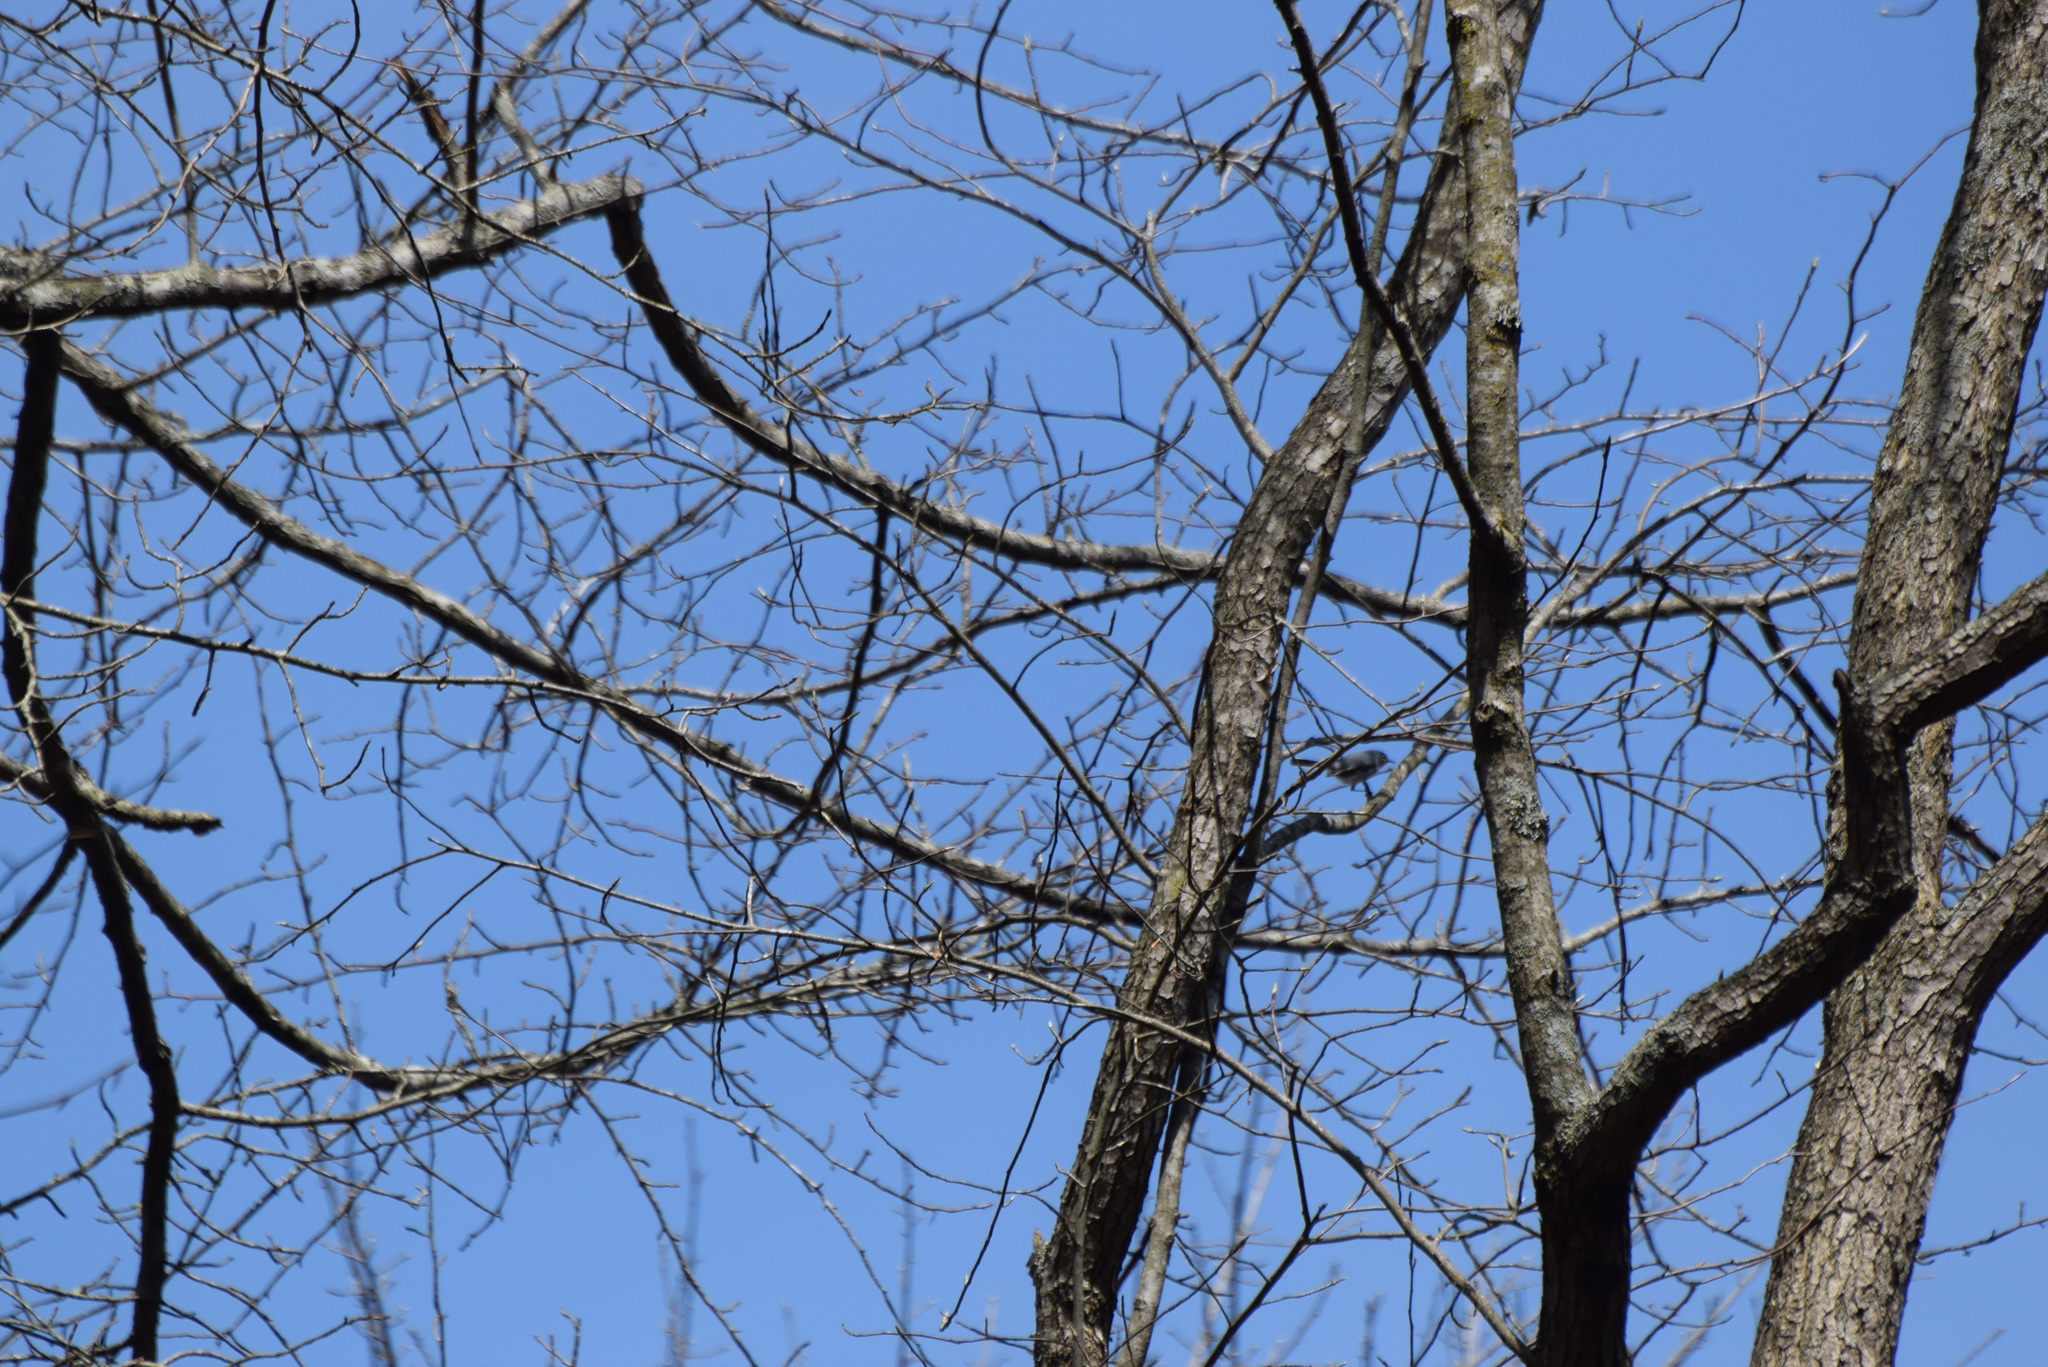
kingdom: Animalia
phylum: Chordata
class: Aves
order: Passeriformes
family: Polioptilidae
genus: Polioptila
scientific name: Polioptila caerulea
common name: Blue-gray gnatcatcher
